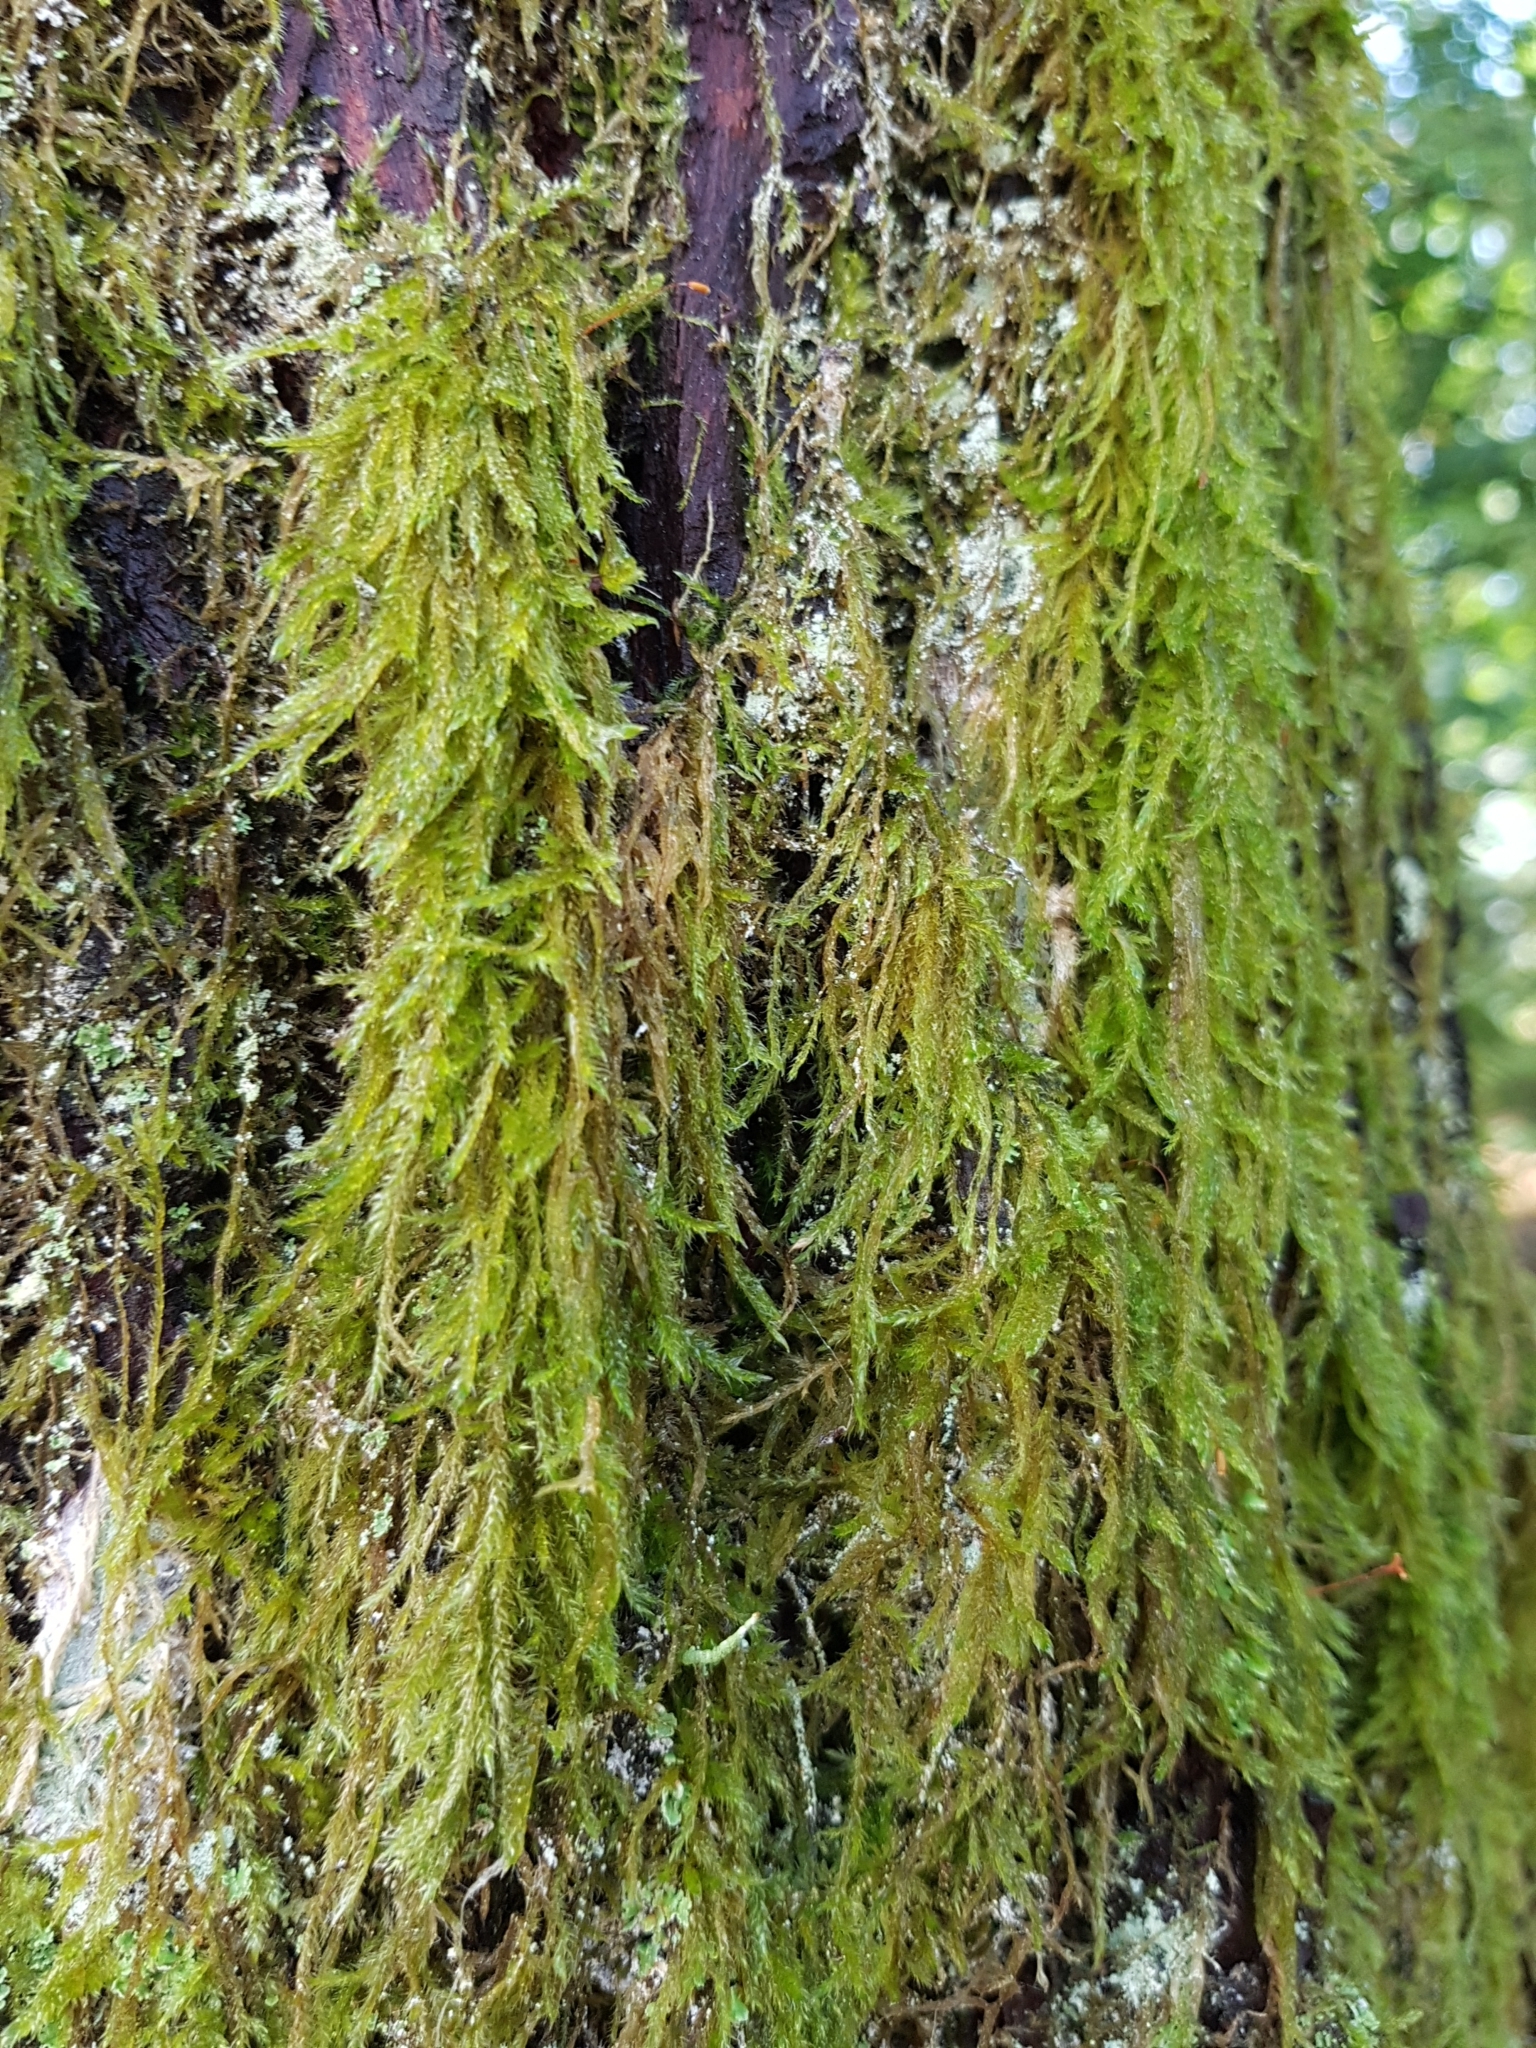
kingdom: Plantae
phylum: Bryophyta
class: Bryopsida
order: Hypnales
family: Hypnaceae
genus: Hypnum
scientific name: Hypnum cupressiforme
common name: Cypress-leaved plait-moss
